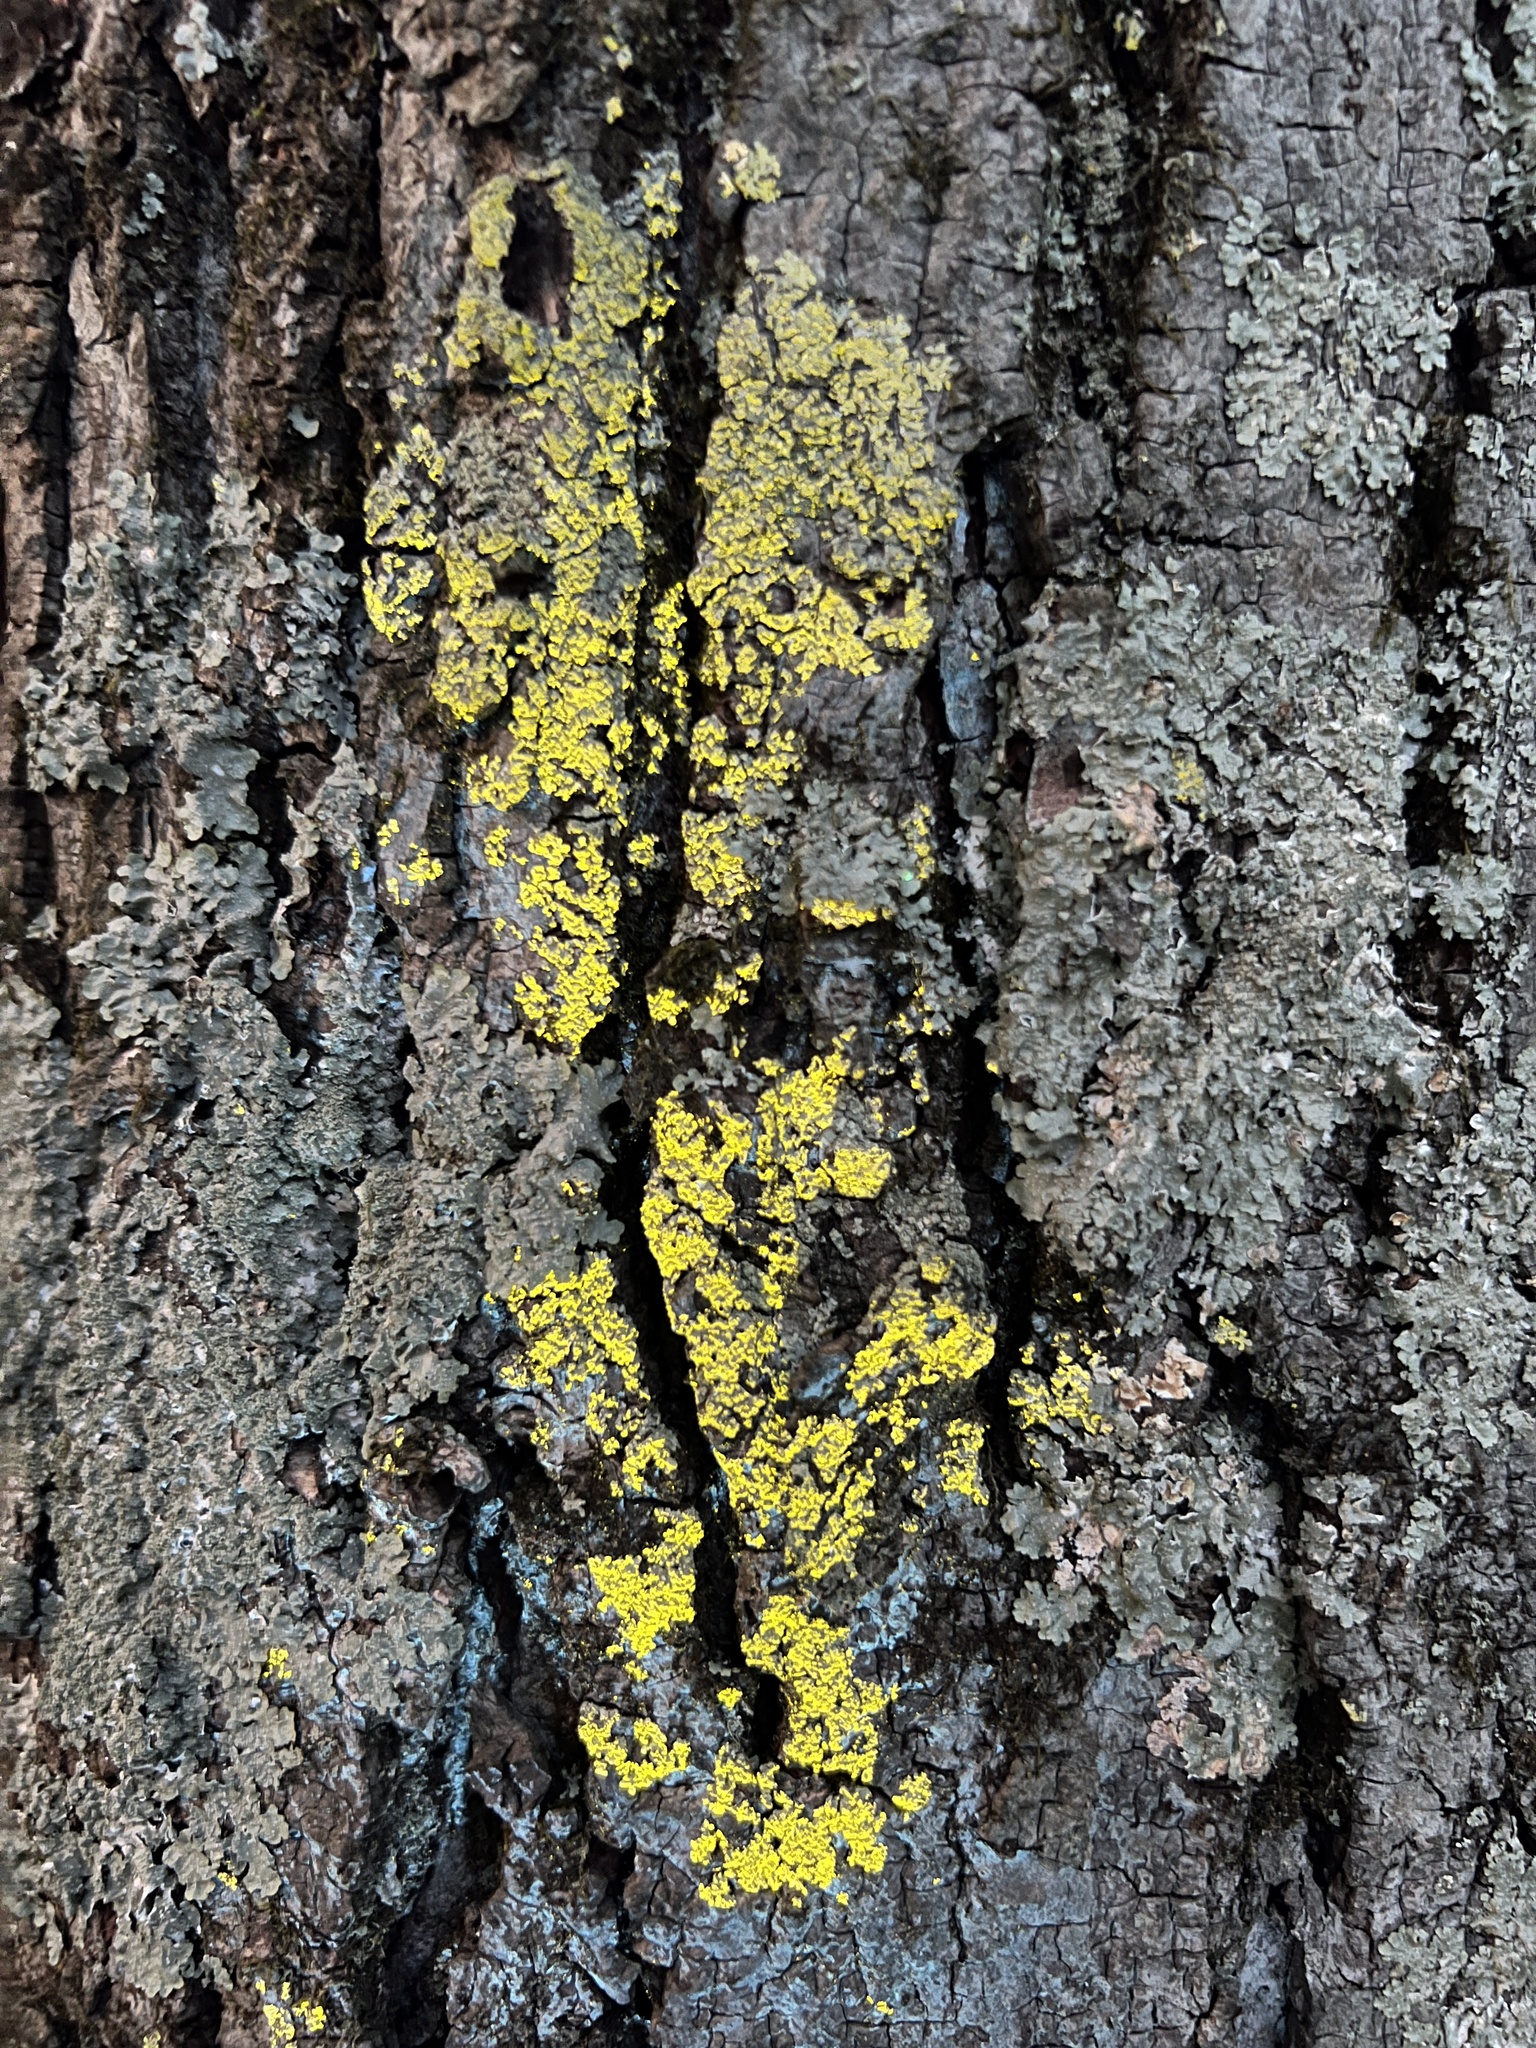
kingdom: Fungi
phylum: Ascomycota
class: Lecanoromycetes
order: Caliciales
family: Caliciaceae
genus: Pyxine
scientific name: Pyxine subcinerea
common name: Mustard lichen
